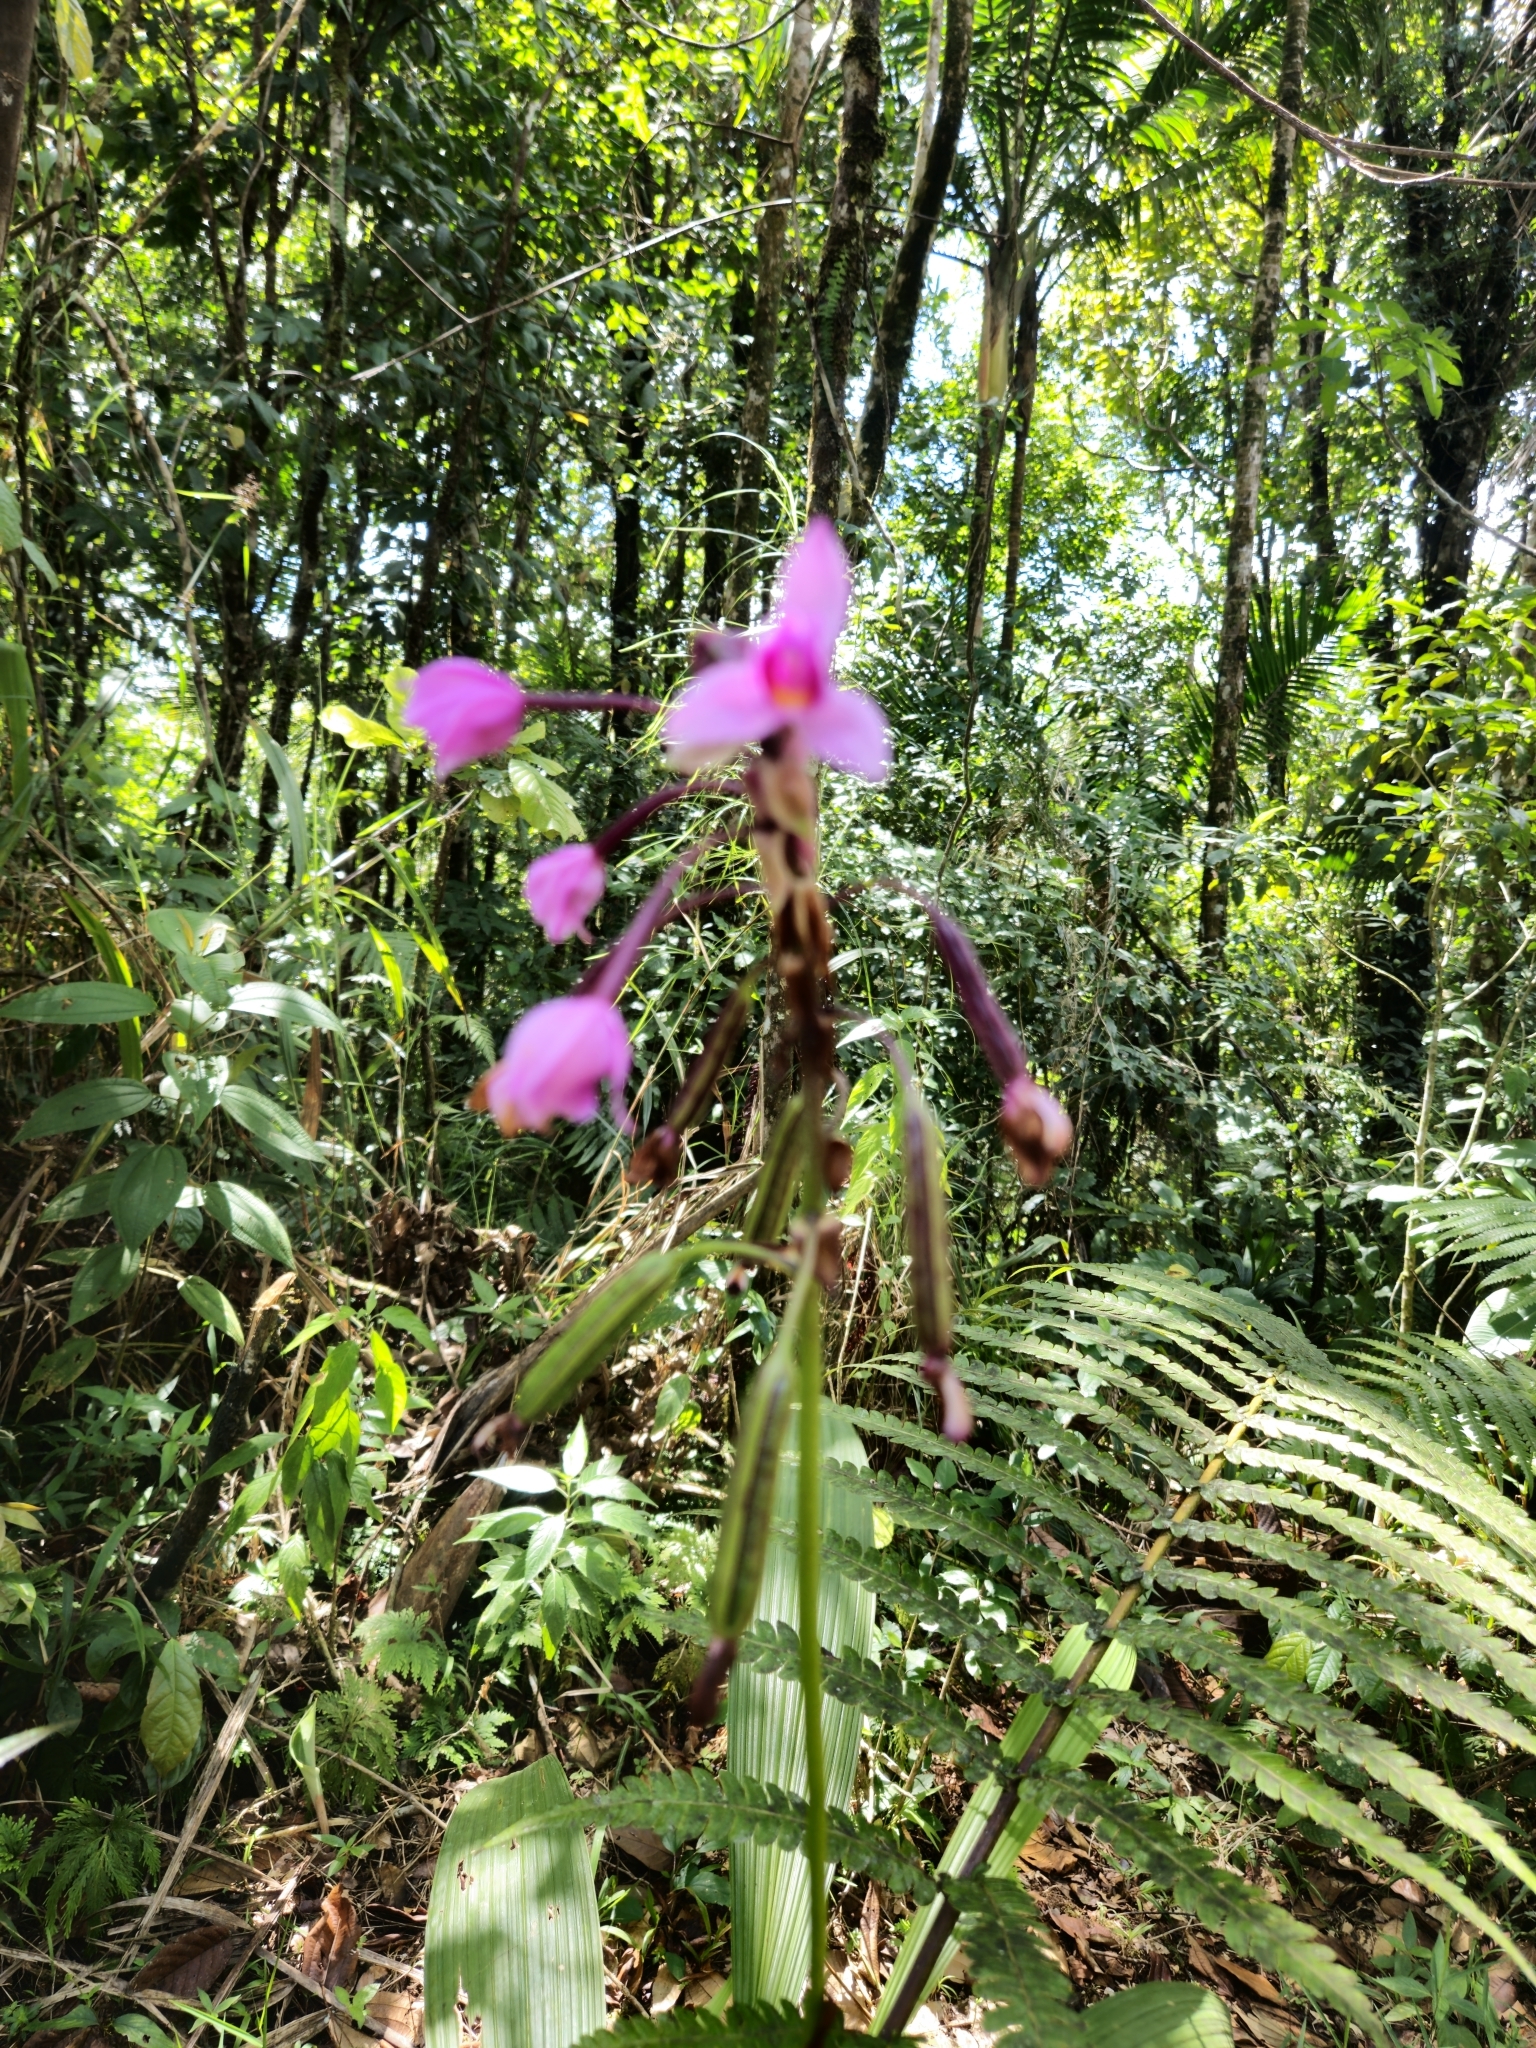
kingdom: Plantae
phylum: Tracheophyta
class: Liliopsida
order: Asparagales
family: Orchidaceae
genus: Spathoglottis
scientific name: Spathoglottis plicata
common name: Philippine ground orchid
